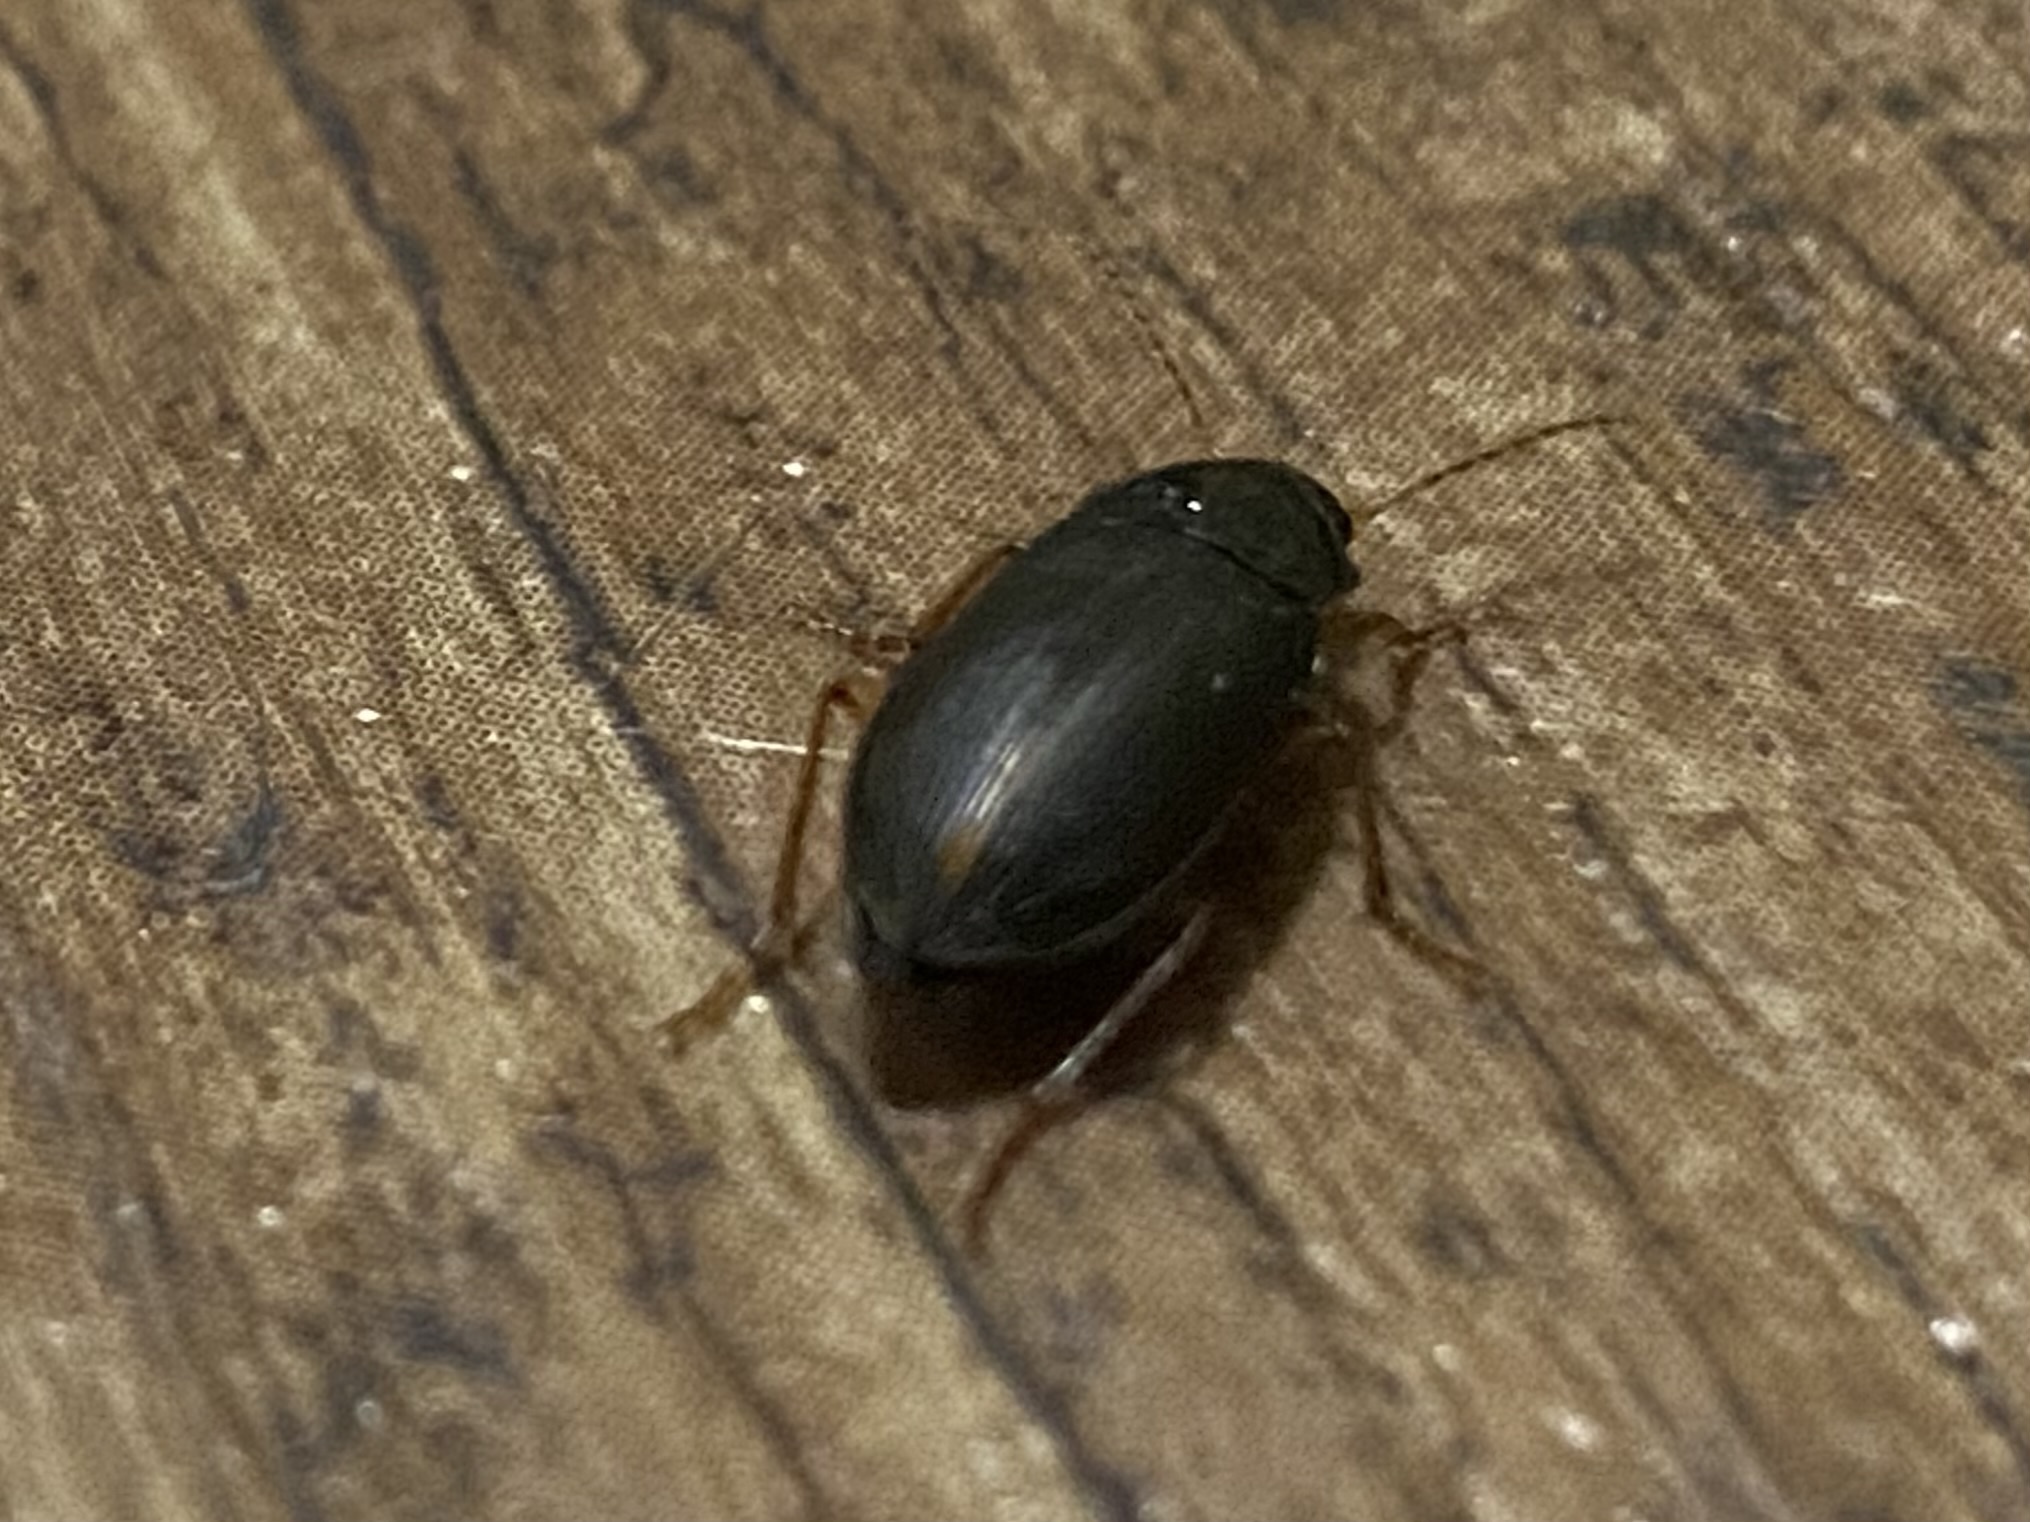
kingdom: Animalia
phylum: Arthropoda
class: Insecta
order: Coleoptera
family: Carabidae
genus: Notiobia
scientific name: Notiobia terminata
